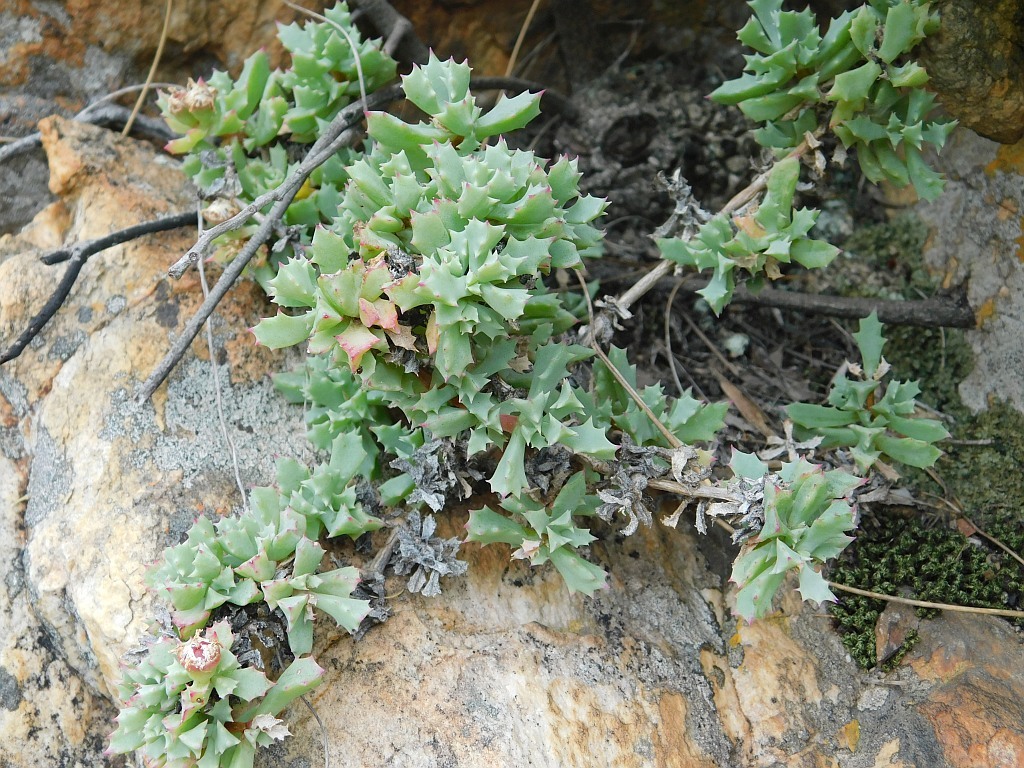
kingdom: Plantae
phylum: Tracheophyta
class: Magnoliopsida
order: Caryophyllales
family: Aizoaceae
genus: Oscularia
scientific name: Oscularia deltoides
